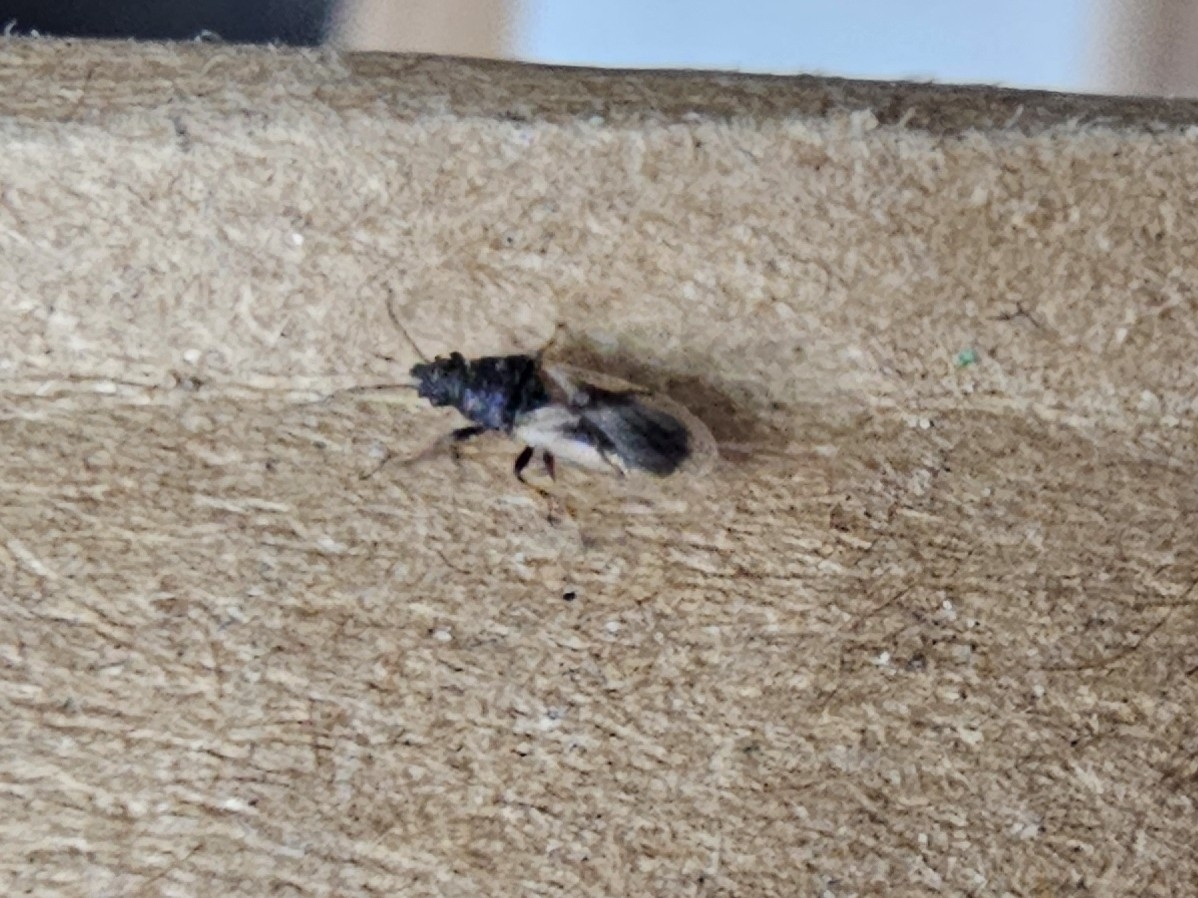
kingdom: Animalia
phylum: Arthropoda
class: Insecta
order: Hemiptera
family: Oxycarenidae
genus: Metopoplax
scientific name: Metopoplax ditomoides
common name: Seed bug
